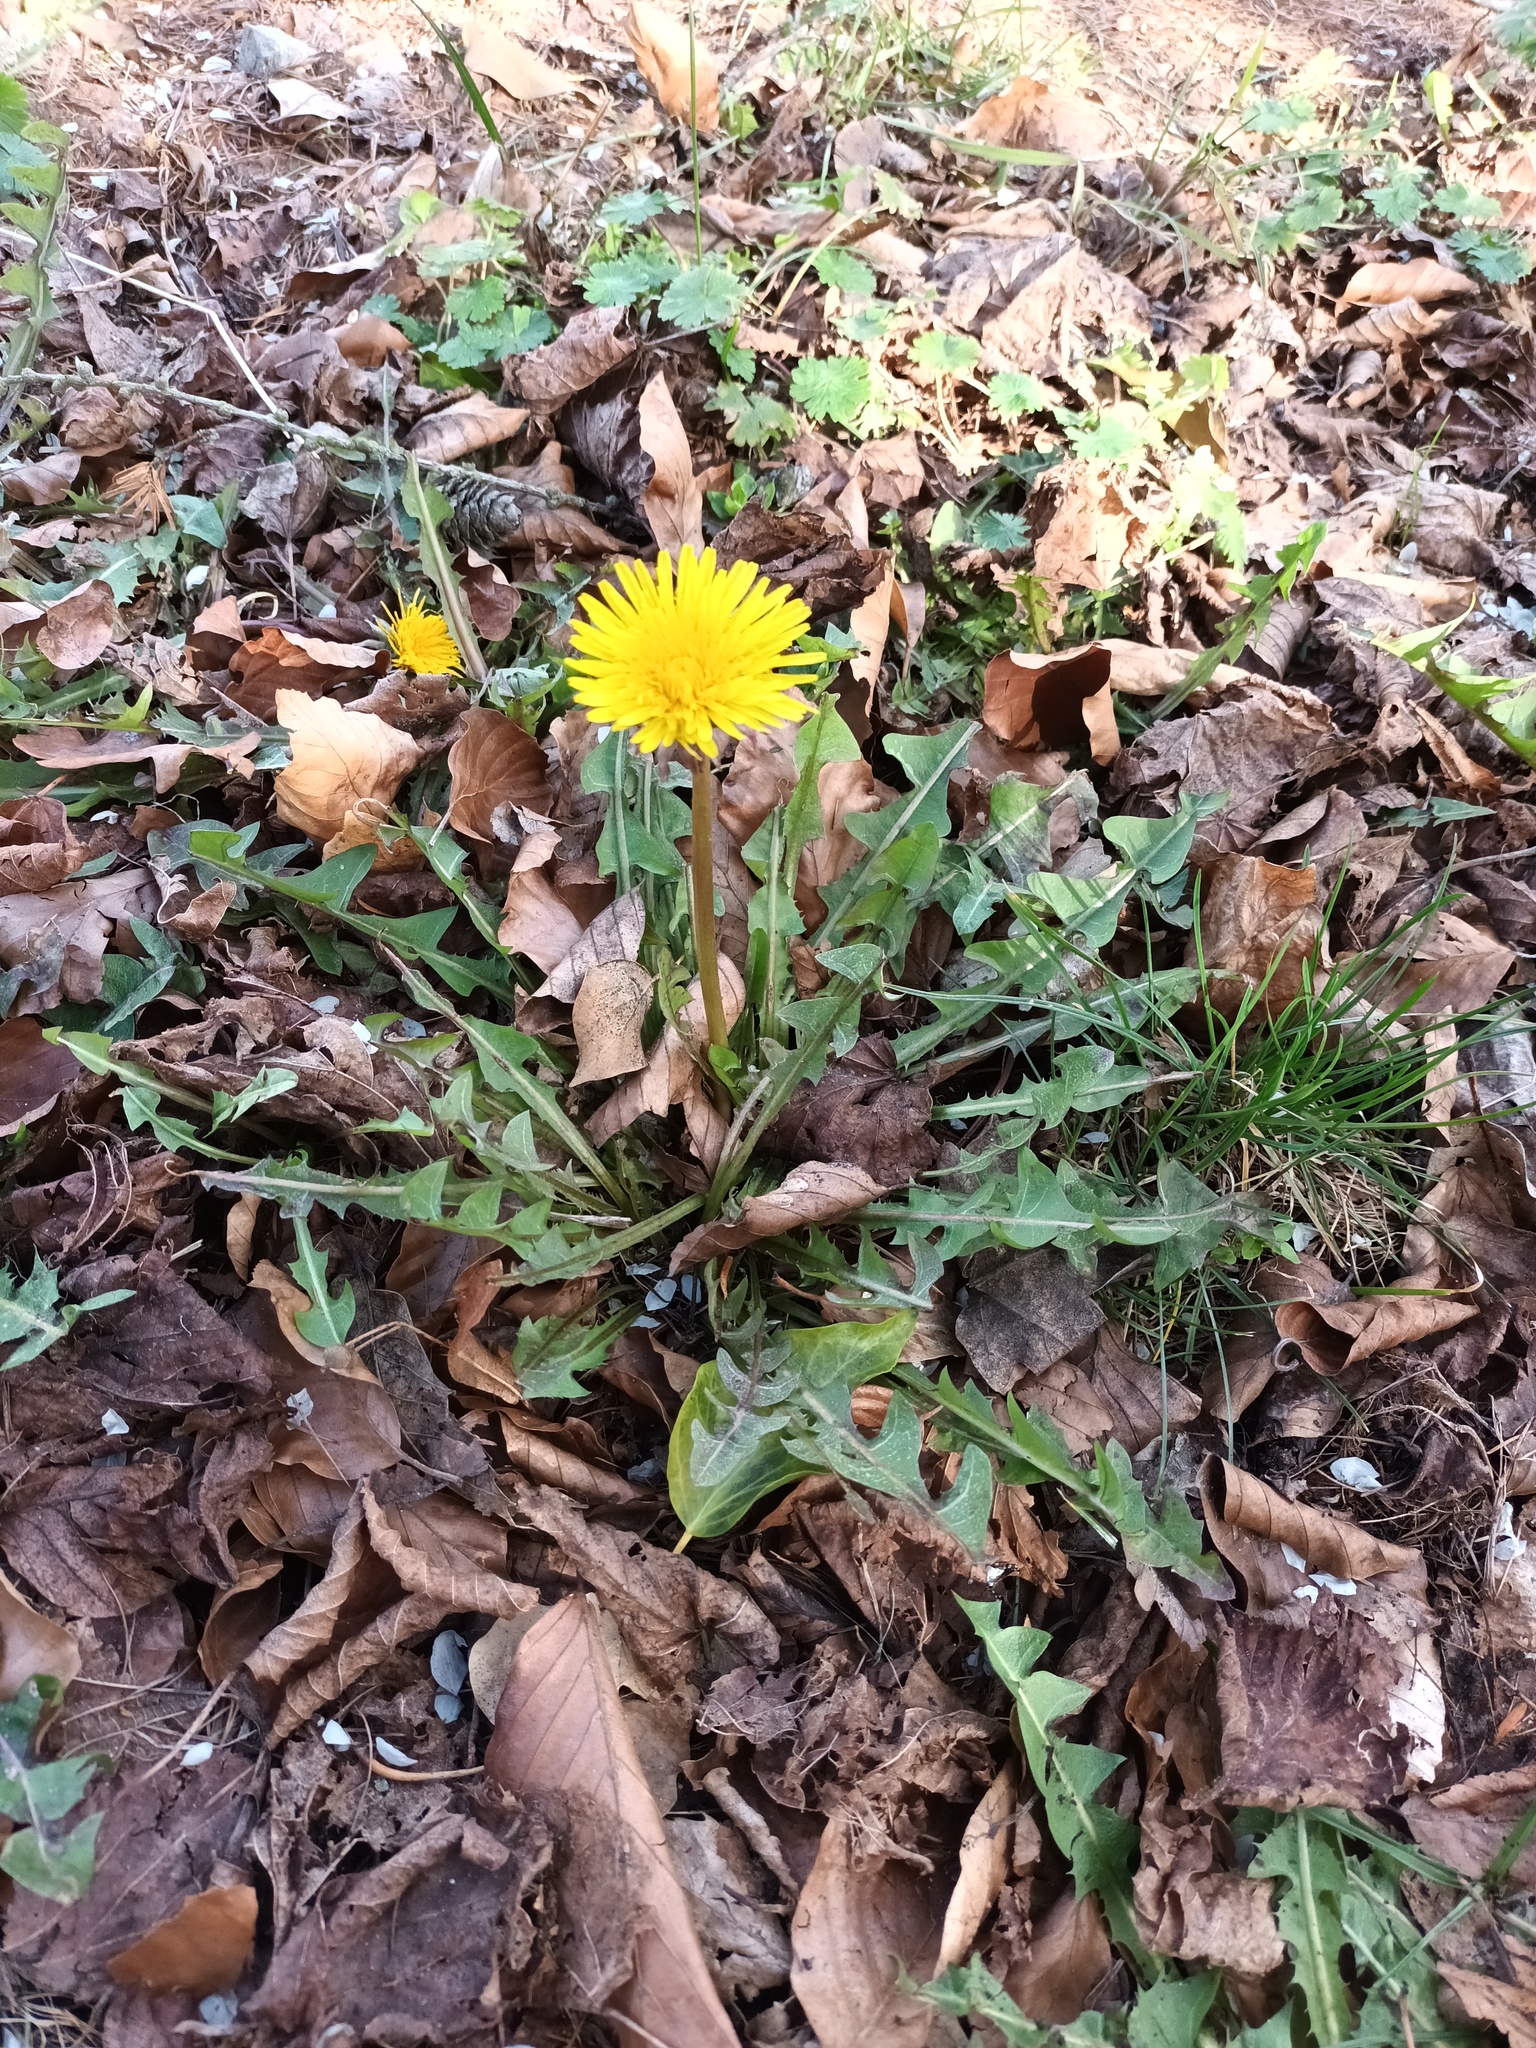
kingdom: Plantae
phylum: Tracheophyta
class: Magnoliopsida
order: Asterales
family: Asteraceae
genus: Taraxacum
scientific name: Taraxacum officinale
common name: Common dandelion
